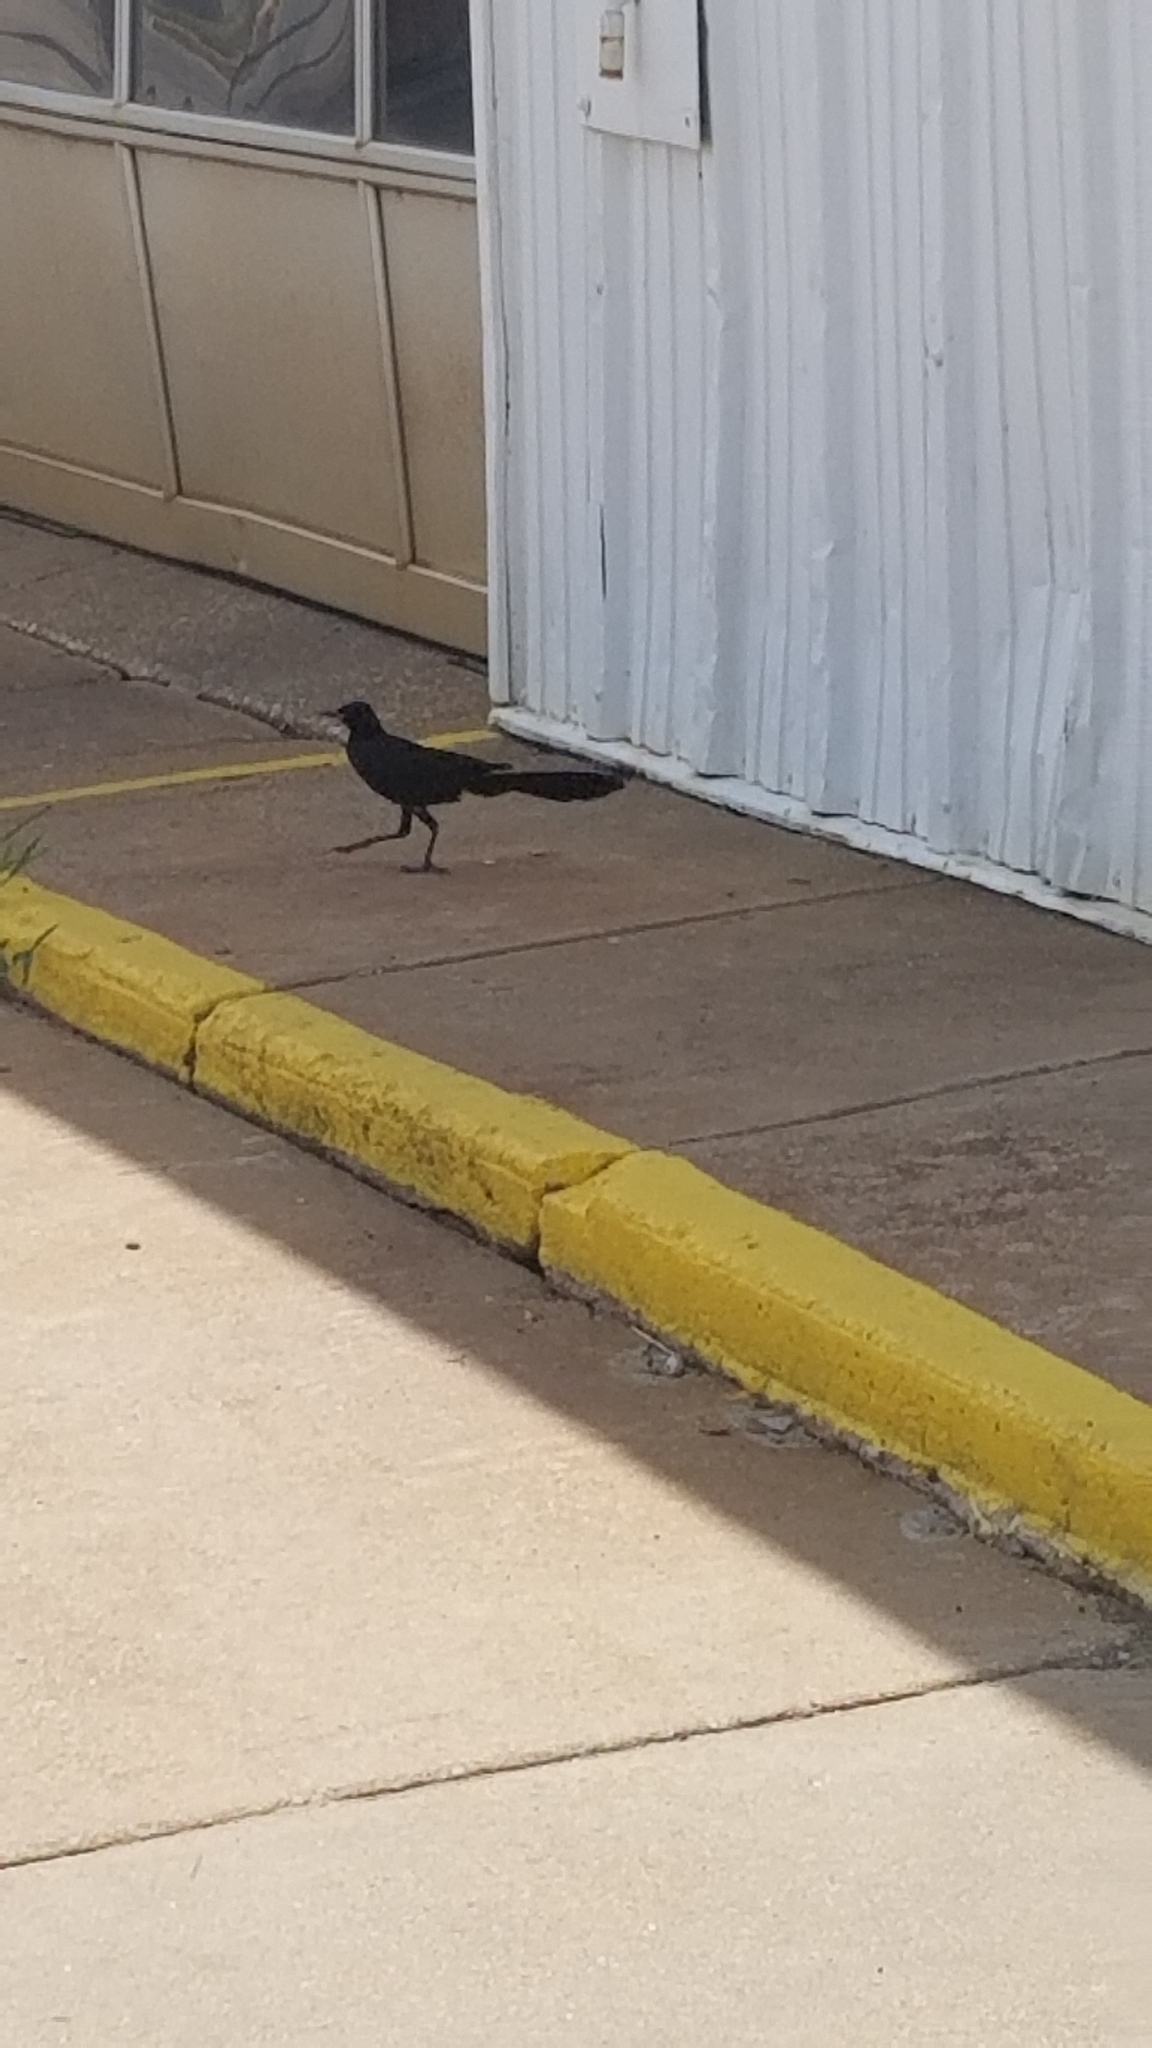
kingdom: Animalia
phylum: Chordata
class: Aves
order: Passeriformes
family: Icteridae
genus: Quiscalus
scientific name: Quiscalus mexicanus
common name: Great-tailed grackle
